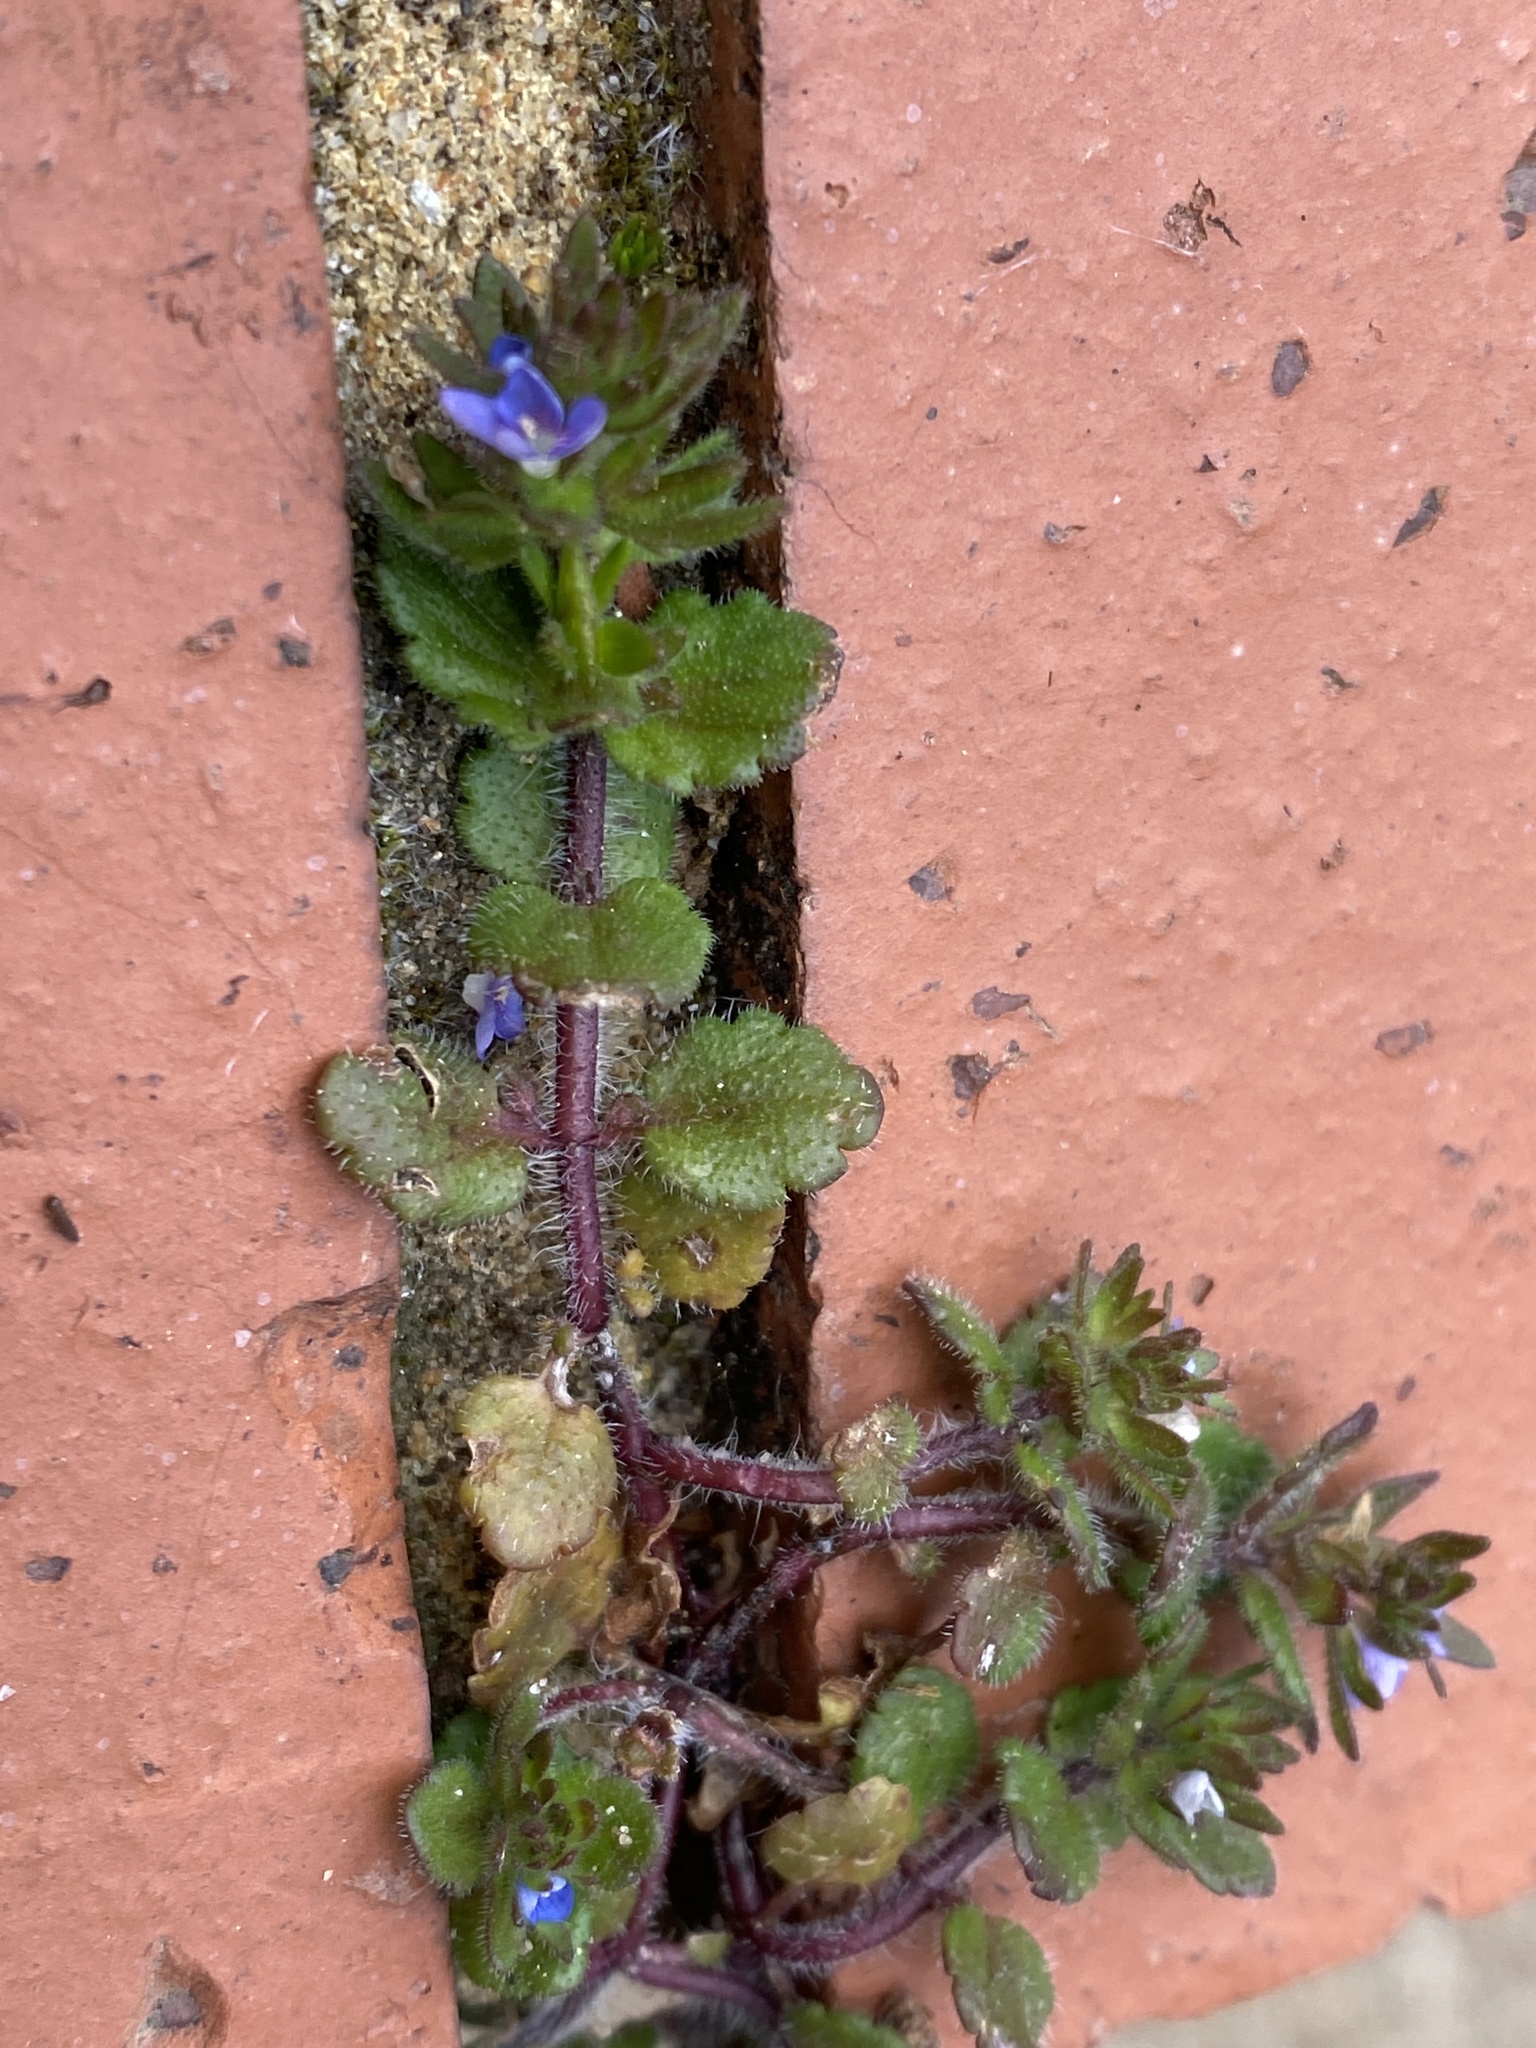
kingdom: Plantae
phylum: Tracheophyta
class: Magnoliopsida
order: Lamiales
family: Plantaginaceae
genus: Veronica
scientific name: Veronica arvensis
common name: Corn speedwell
